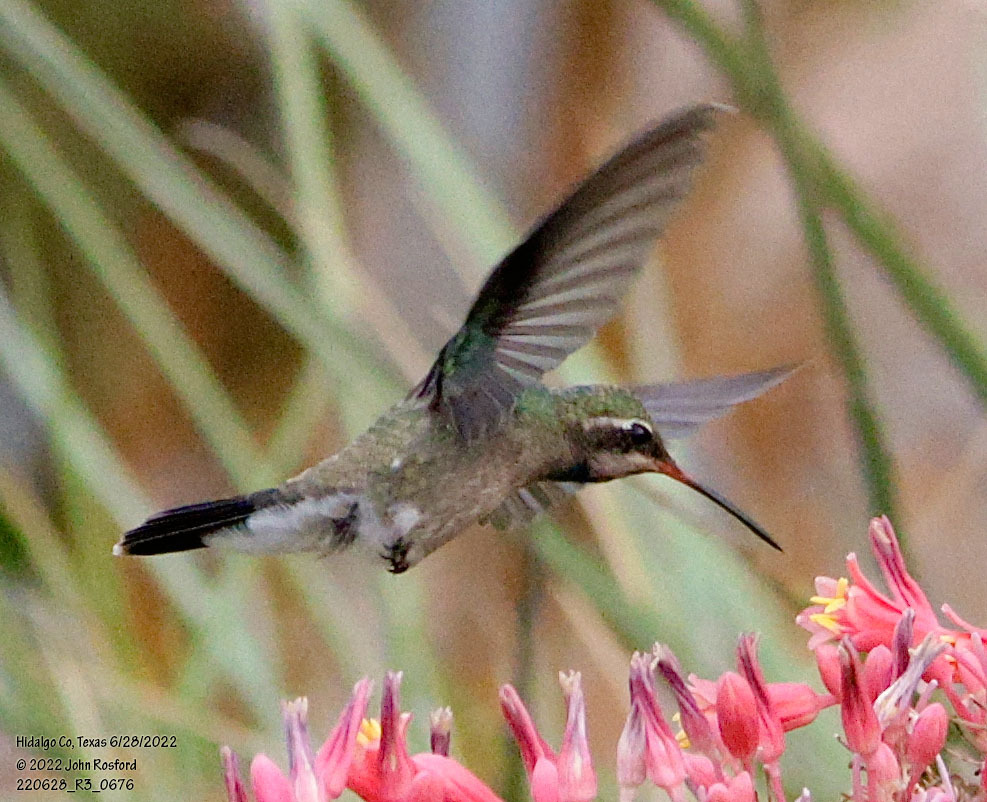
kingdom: Animalia
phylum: Chordata
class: Aves
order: Apodiformes
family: Trochilidae
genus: Cynanthus
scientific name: Cynanthus latirostris
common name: Broad-billed hummingbird
